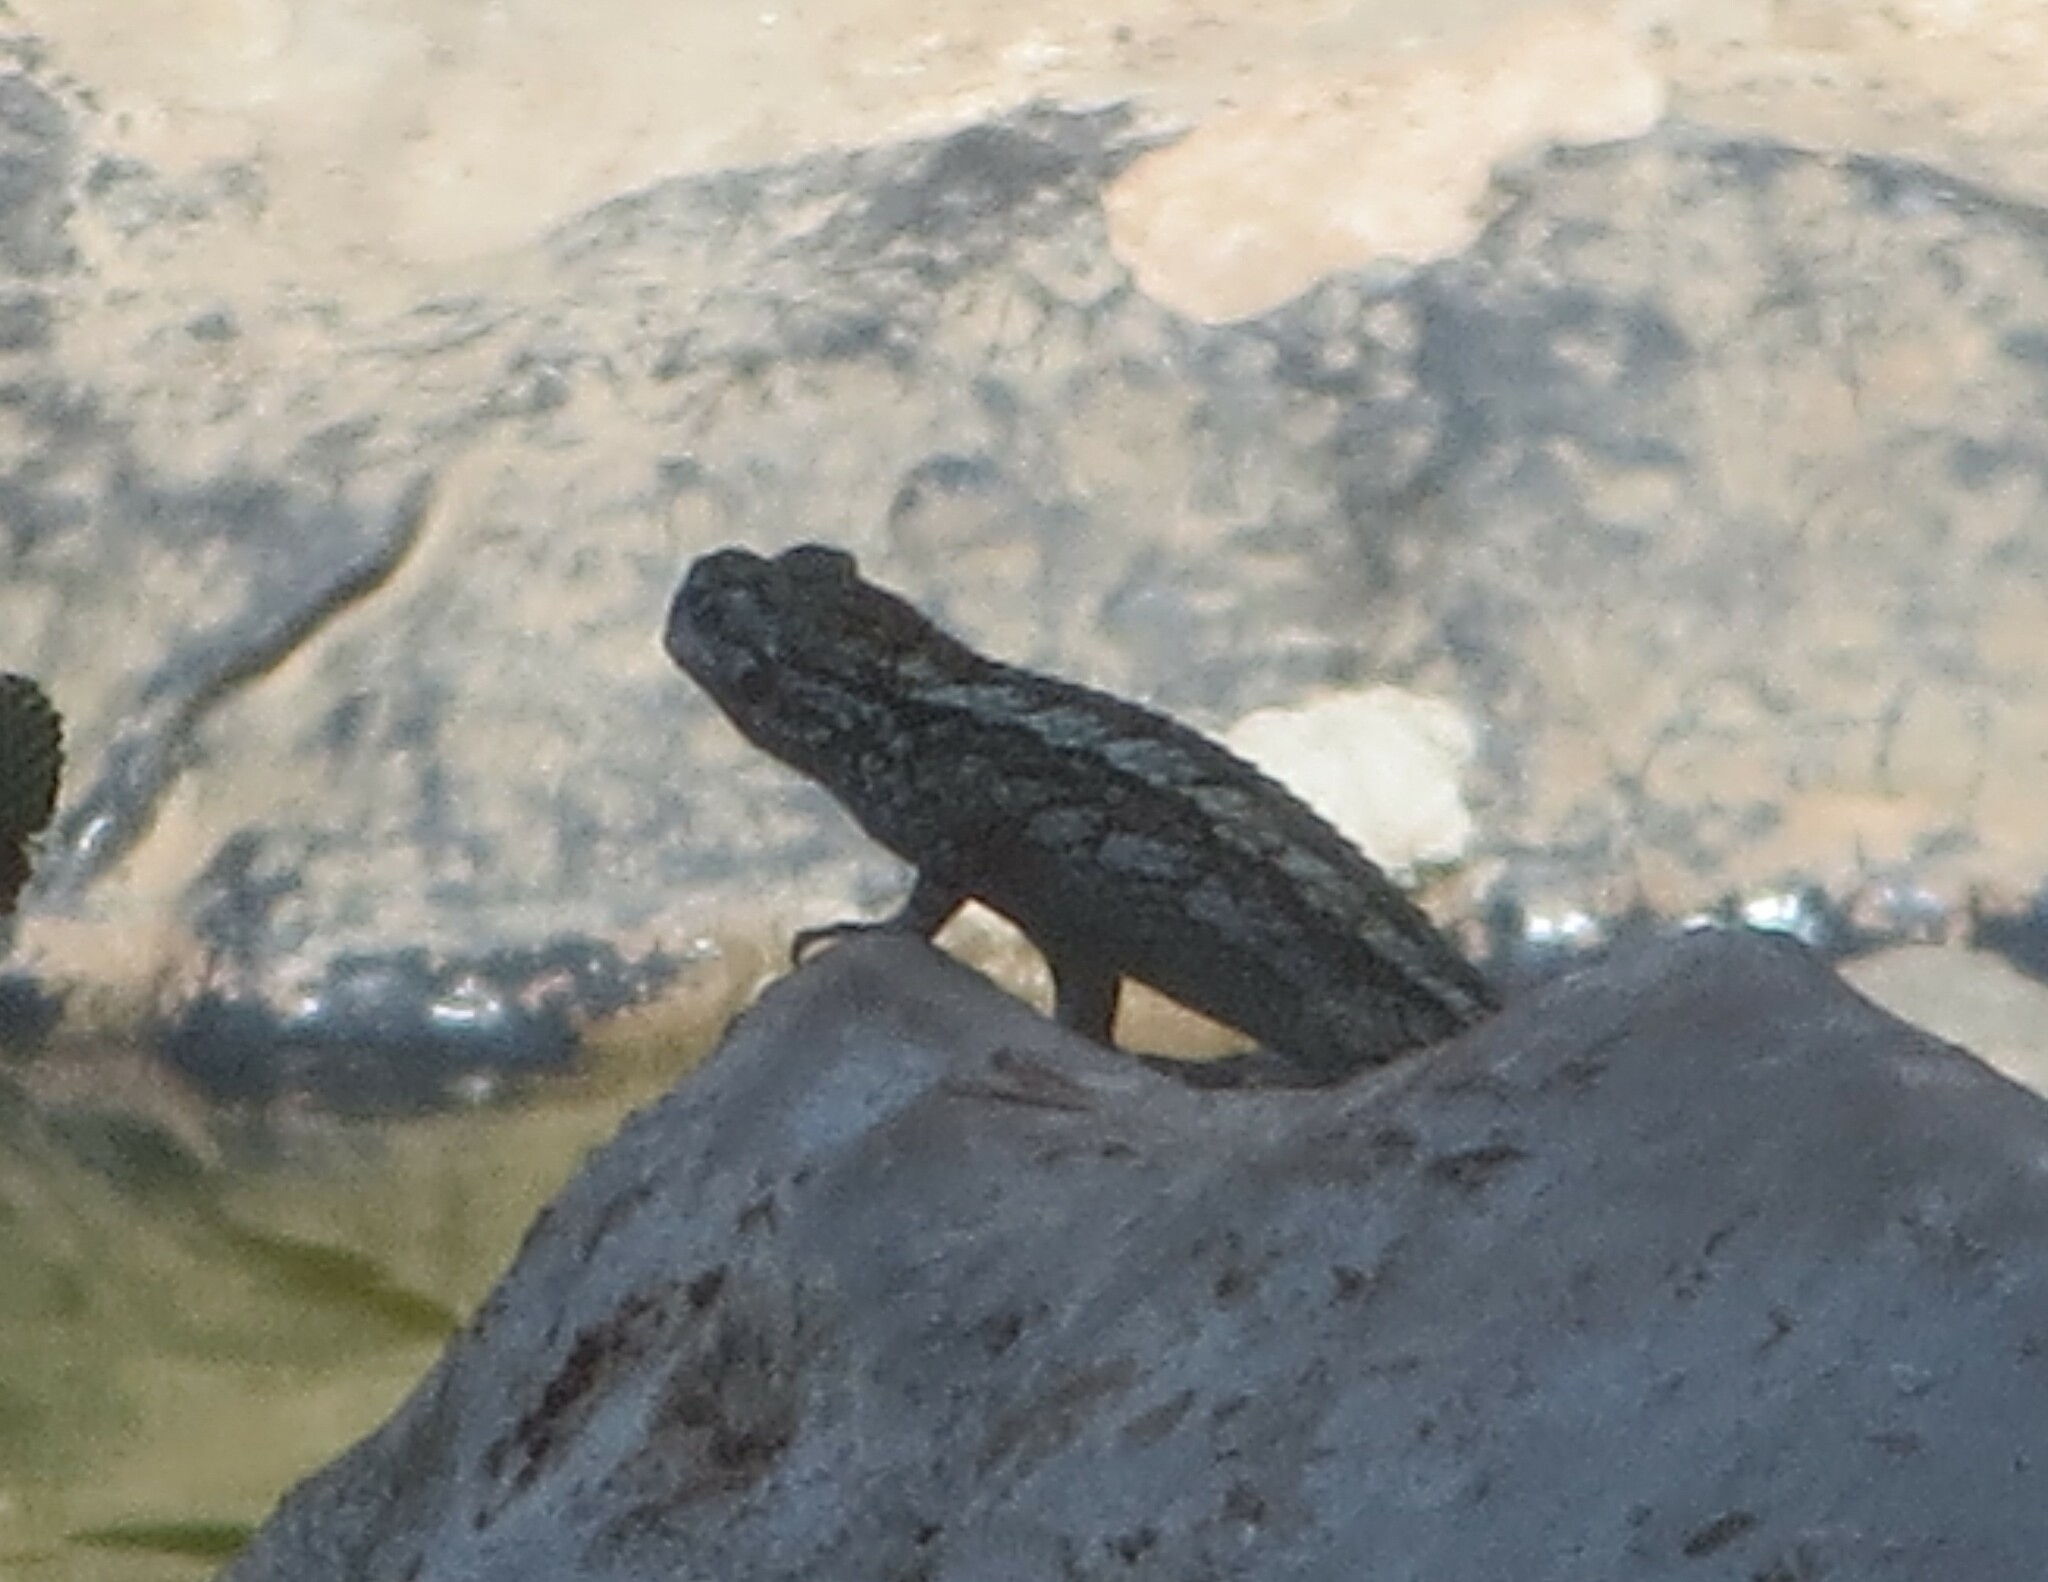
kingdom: Animalia
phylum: Chordata
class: Squamata
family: Phrynosomatidae
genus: Sceloporus
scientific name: Sceloporus olivaceus
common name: Texas spiny lizard
